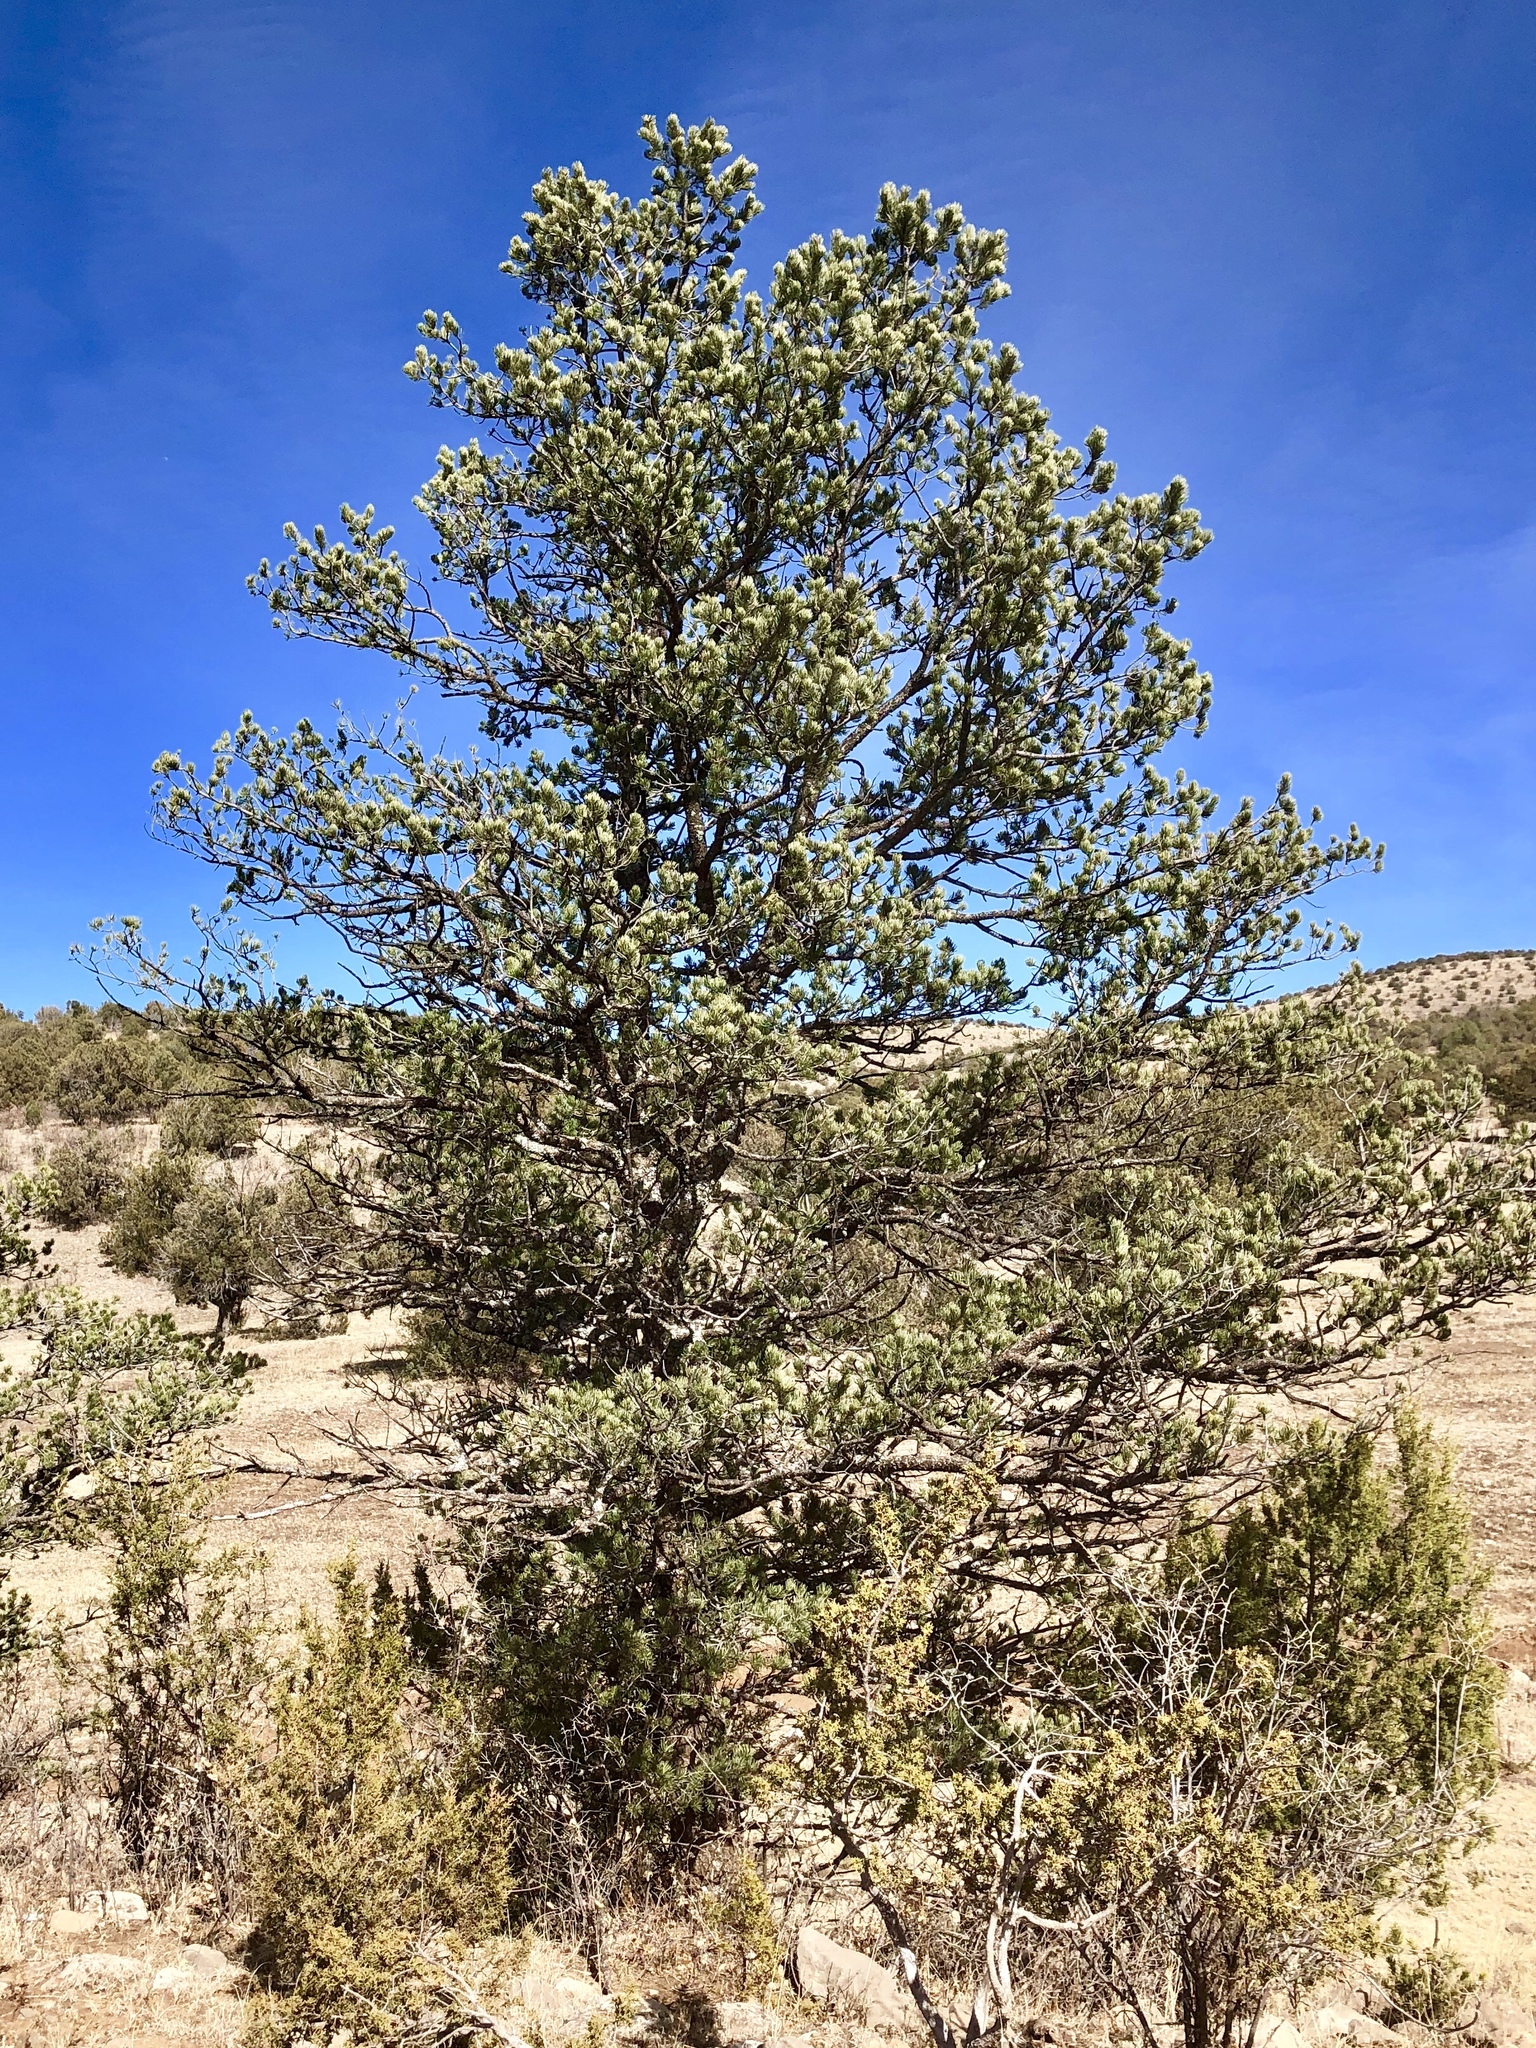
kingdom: Plantae
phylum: Tracheophyta
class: Pinopsida
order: Pinales
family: Pinaceae
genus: Pinus
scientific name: Pinus edulis
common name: Colorado pinyon
